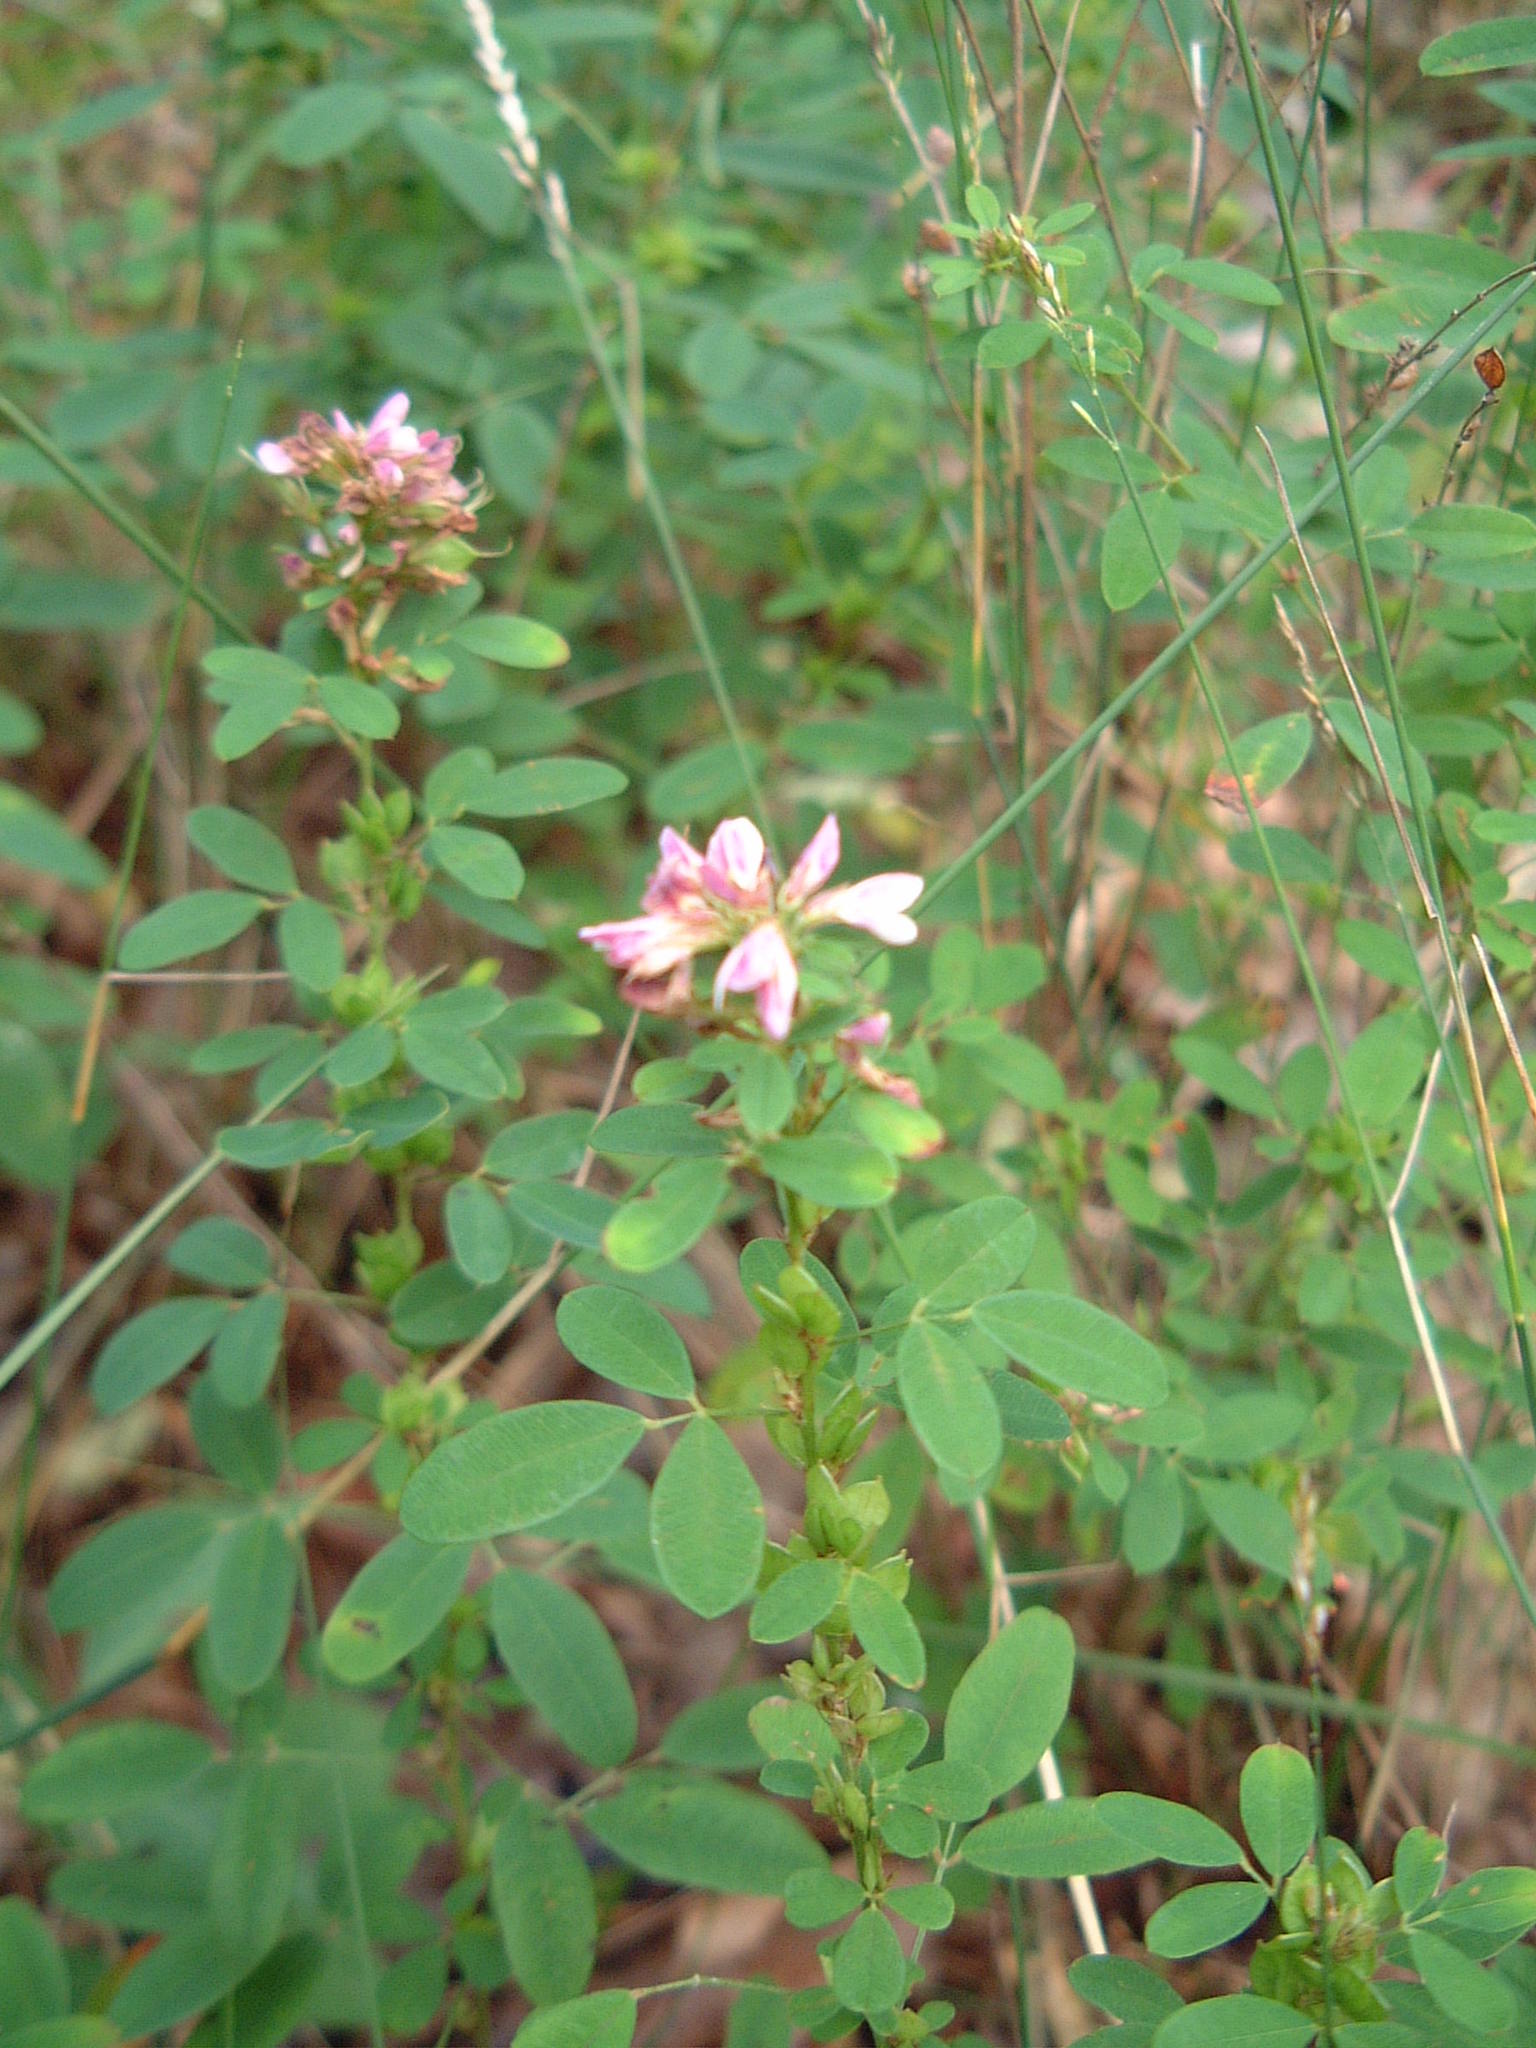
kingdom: Plantae
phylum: Tracheophyta
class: Magnoliopsida
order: Fabales
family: Fabaceae
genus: Lespedeza
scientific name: Lespedeza violacea
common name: Wand bush-clover
